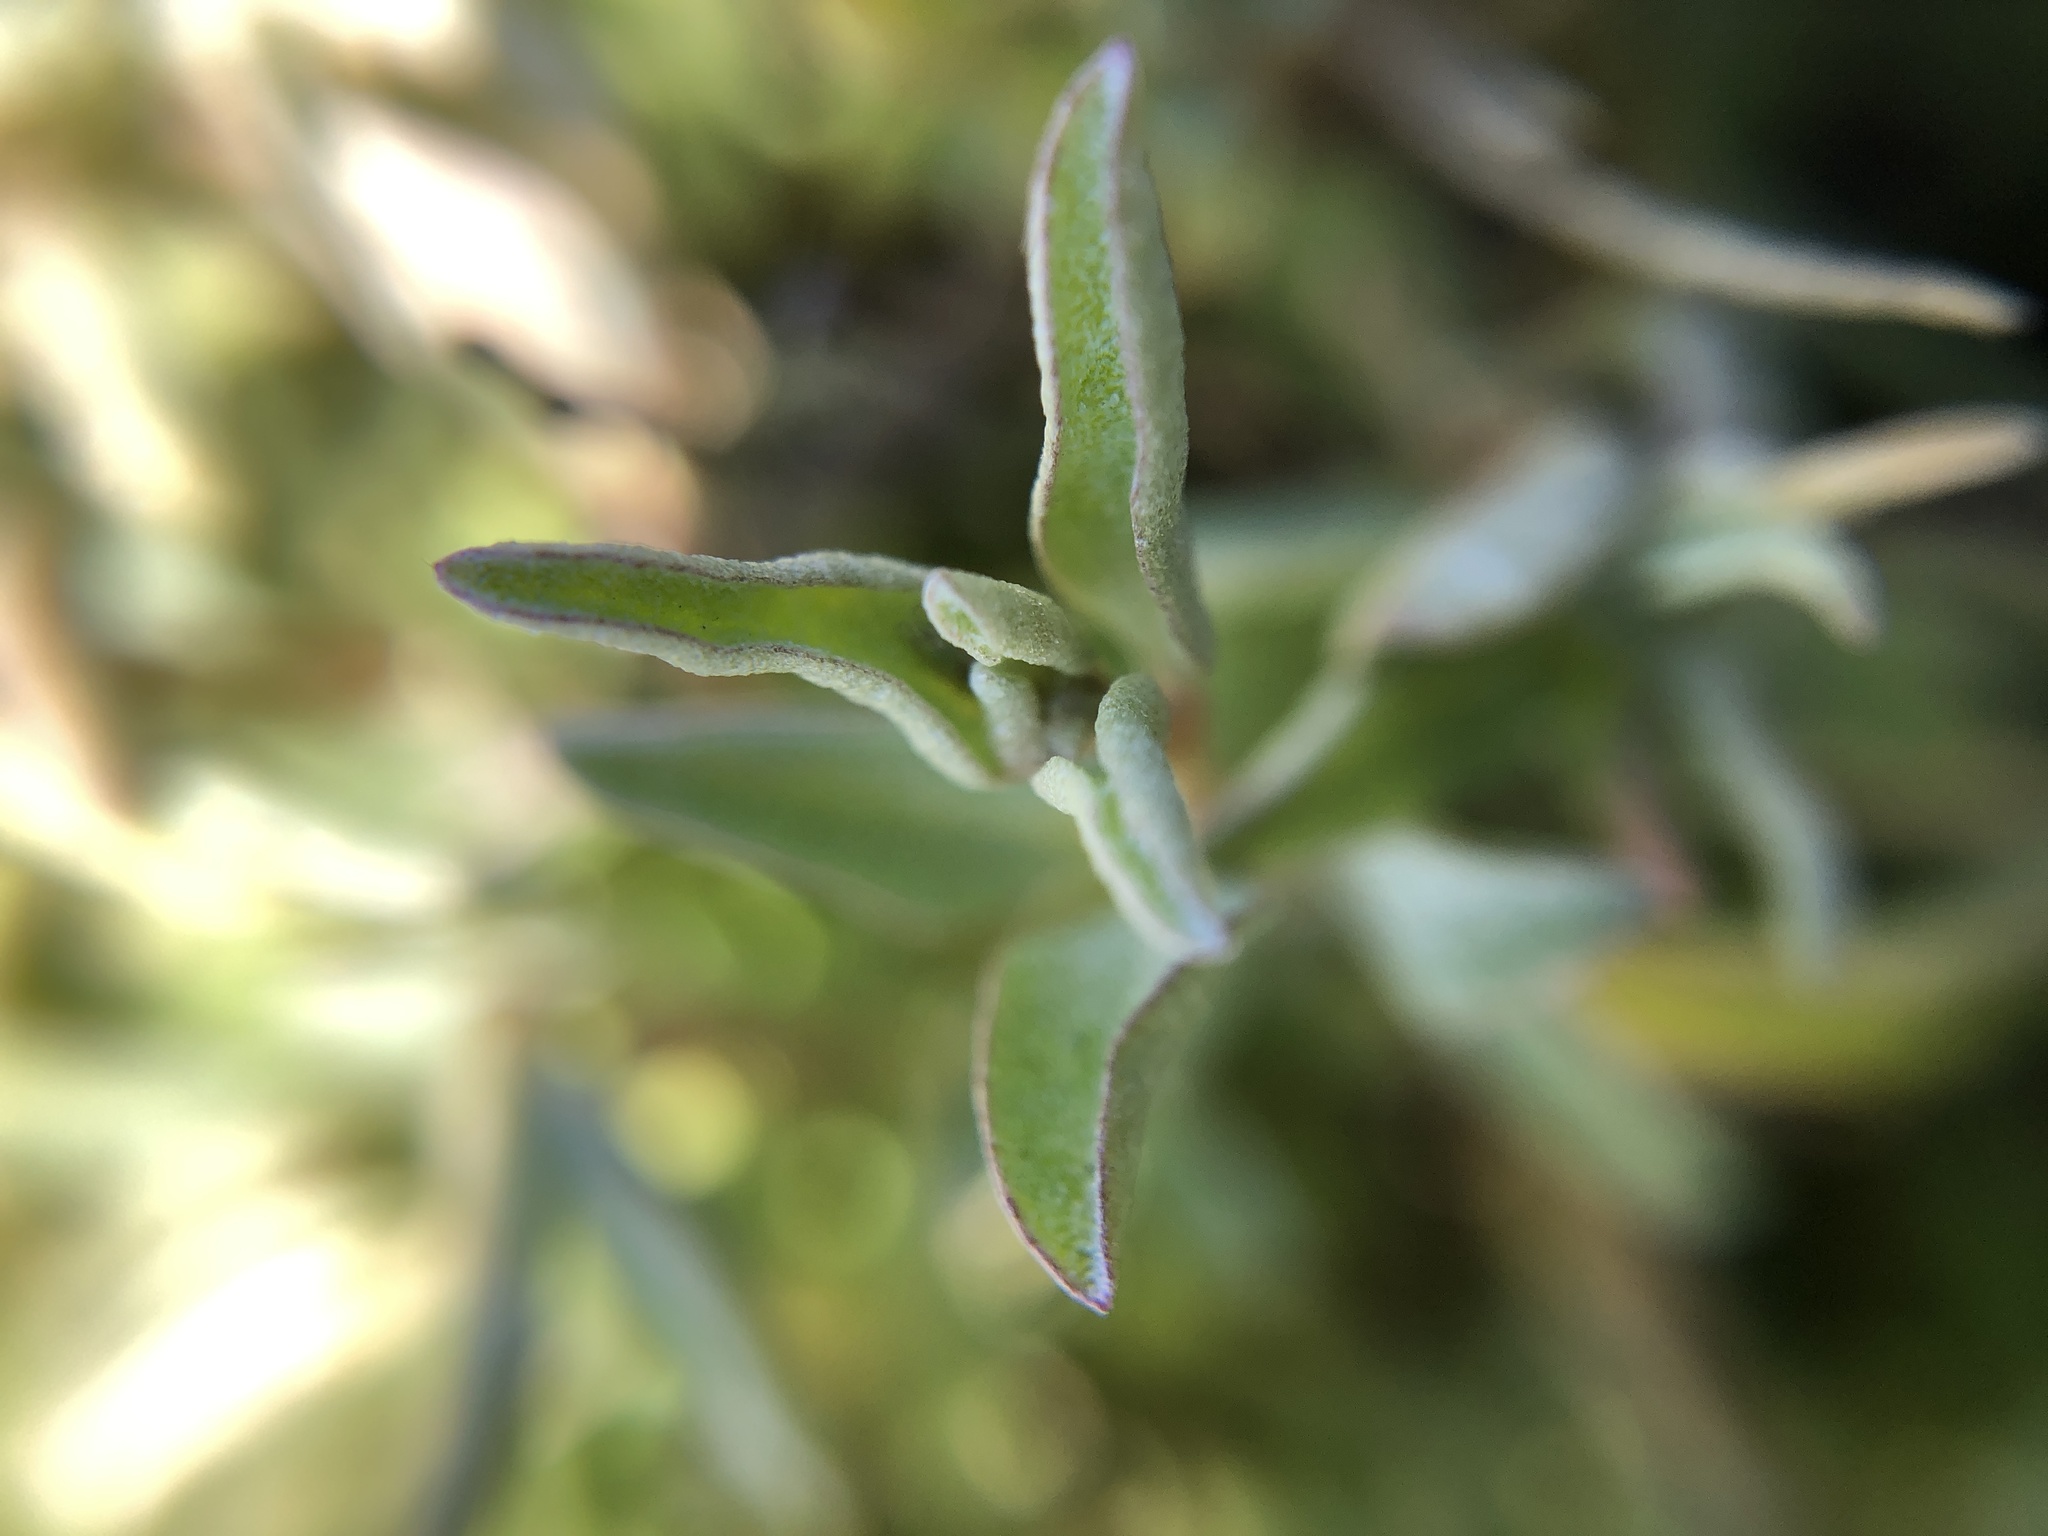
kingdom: Plantae
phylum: Tracheophyta
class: Magnoliopsida
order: Caryophyllales
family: Amaranthaceae
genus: Atriplex
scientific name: Atriplex semibaccata
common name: Australian saltbush
